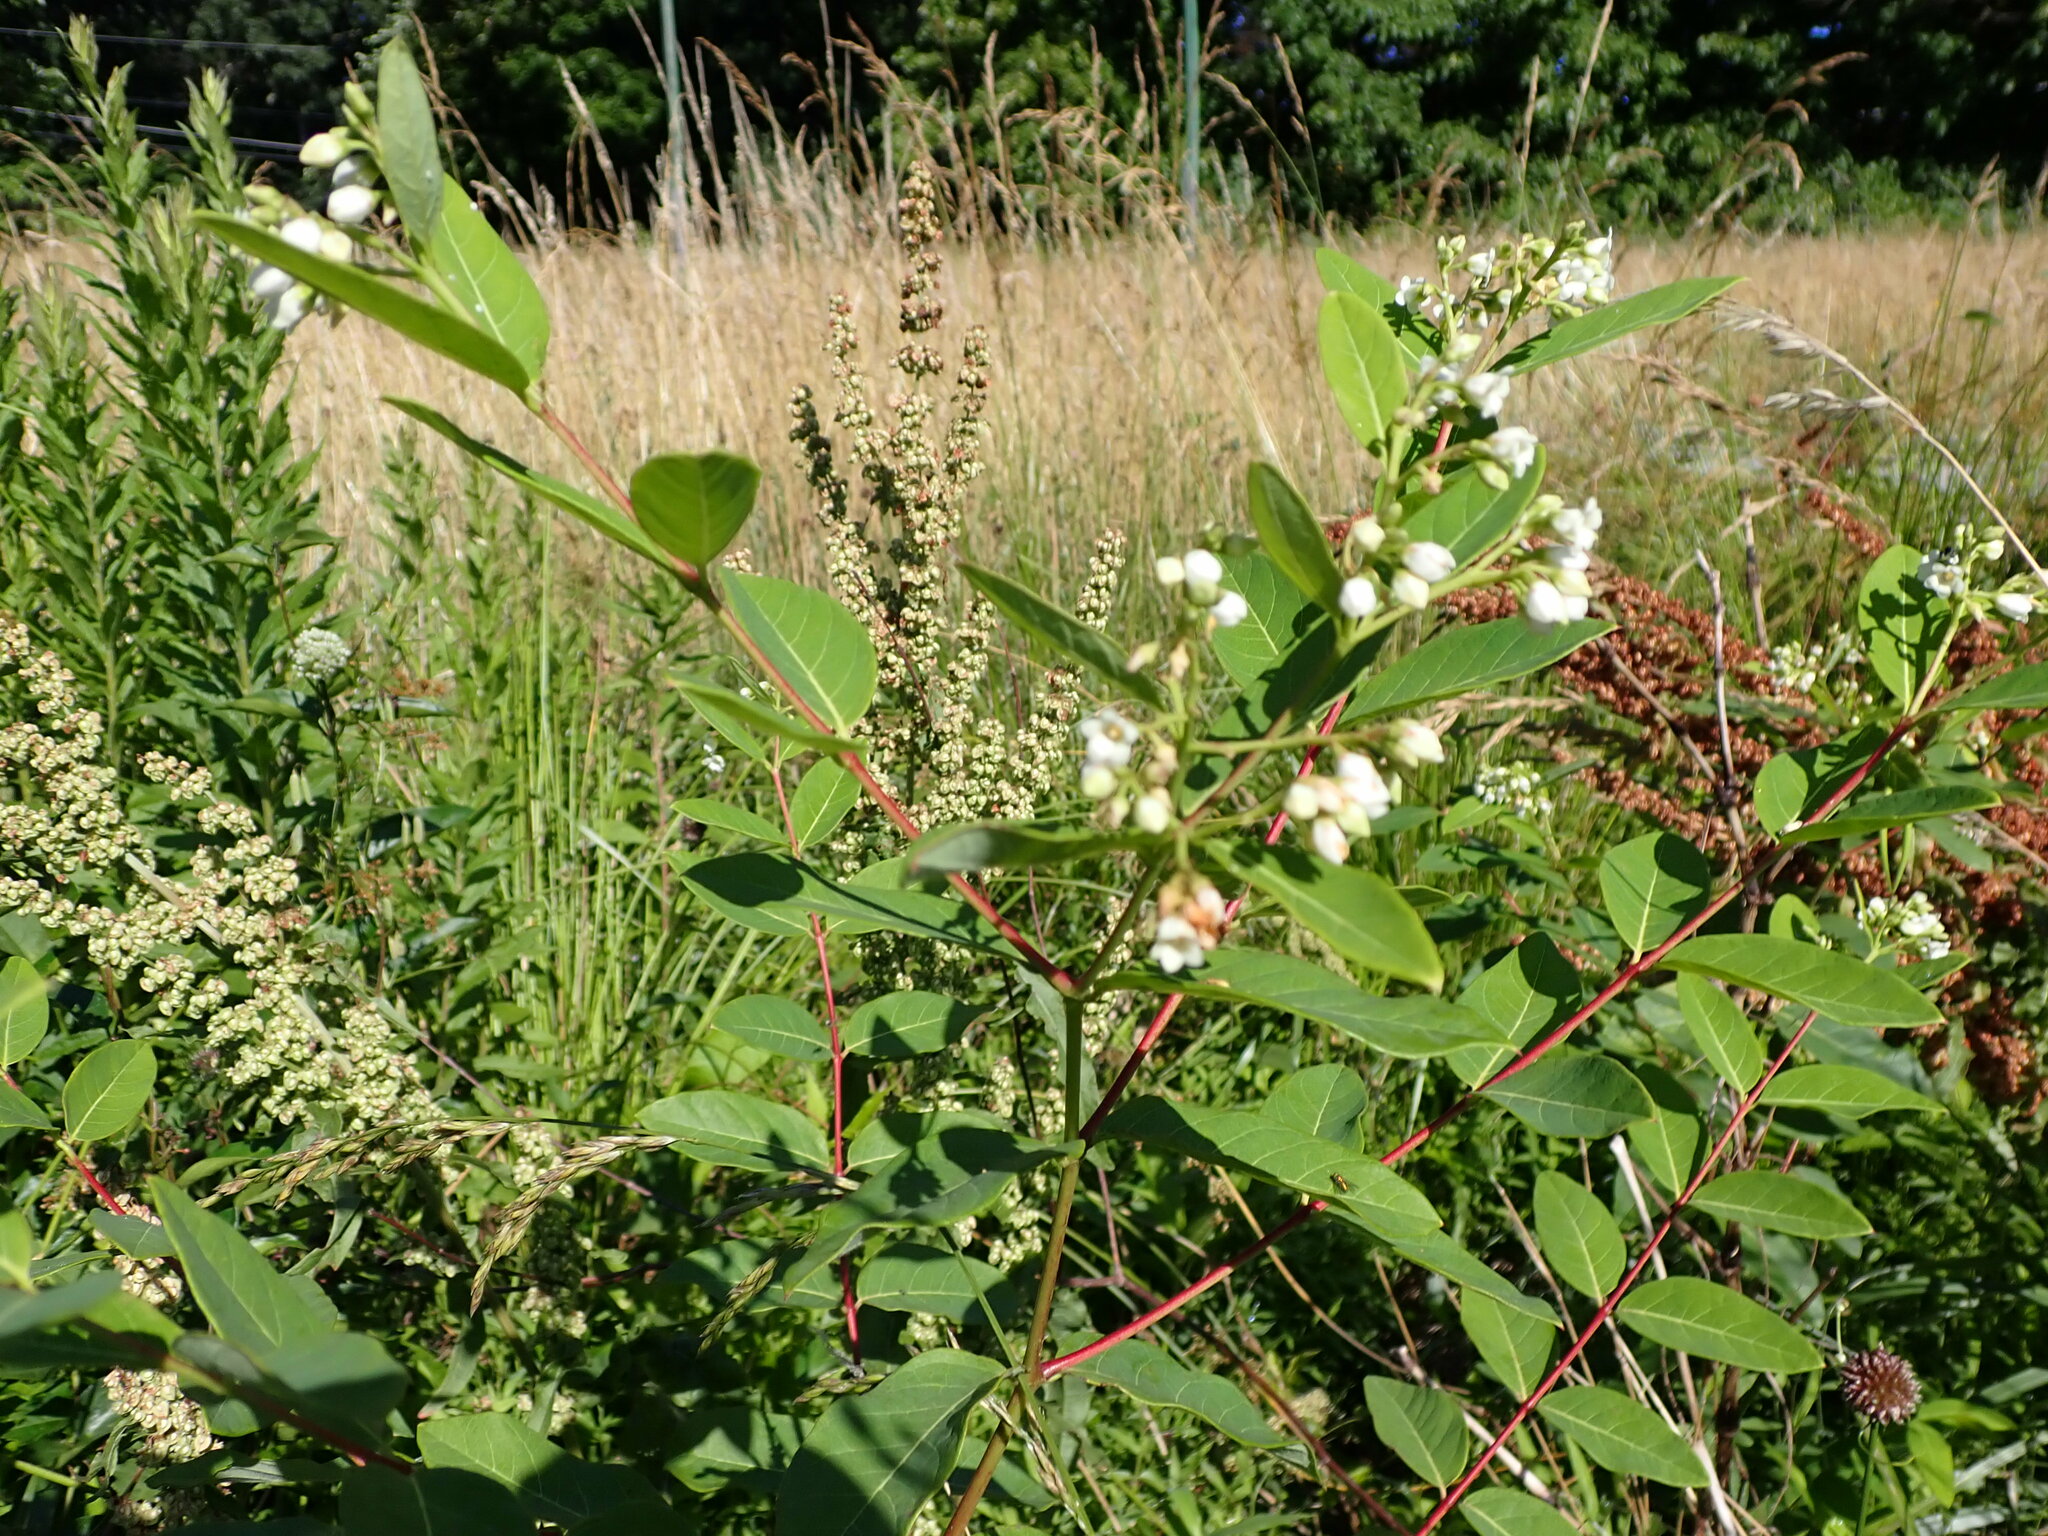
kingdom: Plantae
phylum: Tracheophyta
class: Magnoliopsida
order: Gentianales
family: Apocynaceae
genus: Apocynum
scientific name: Apocynum cannabinum
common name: Hemp dogbane
